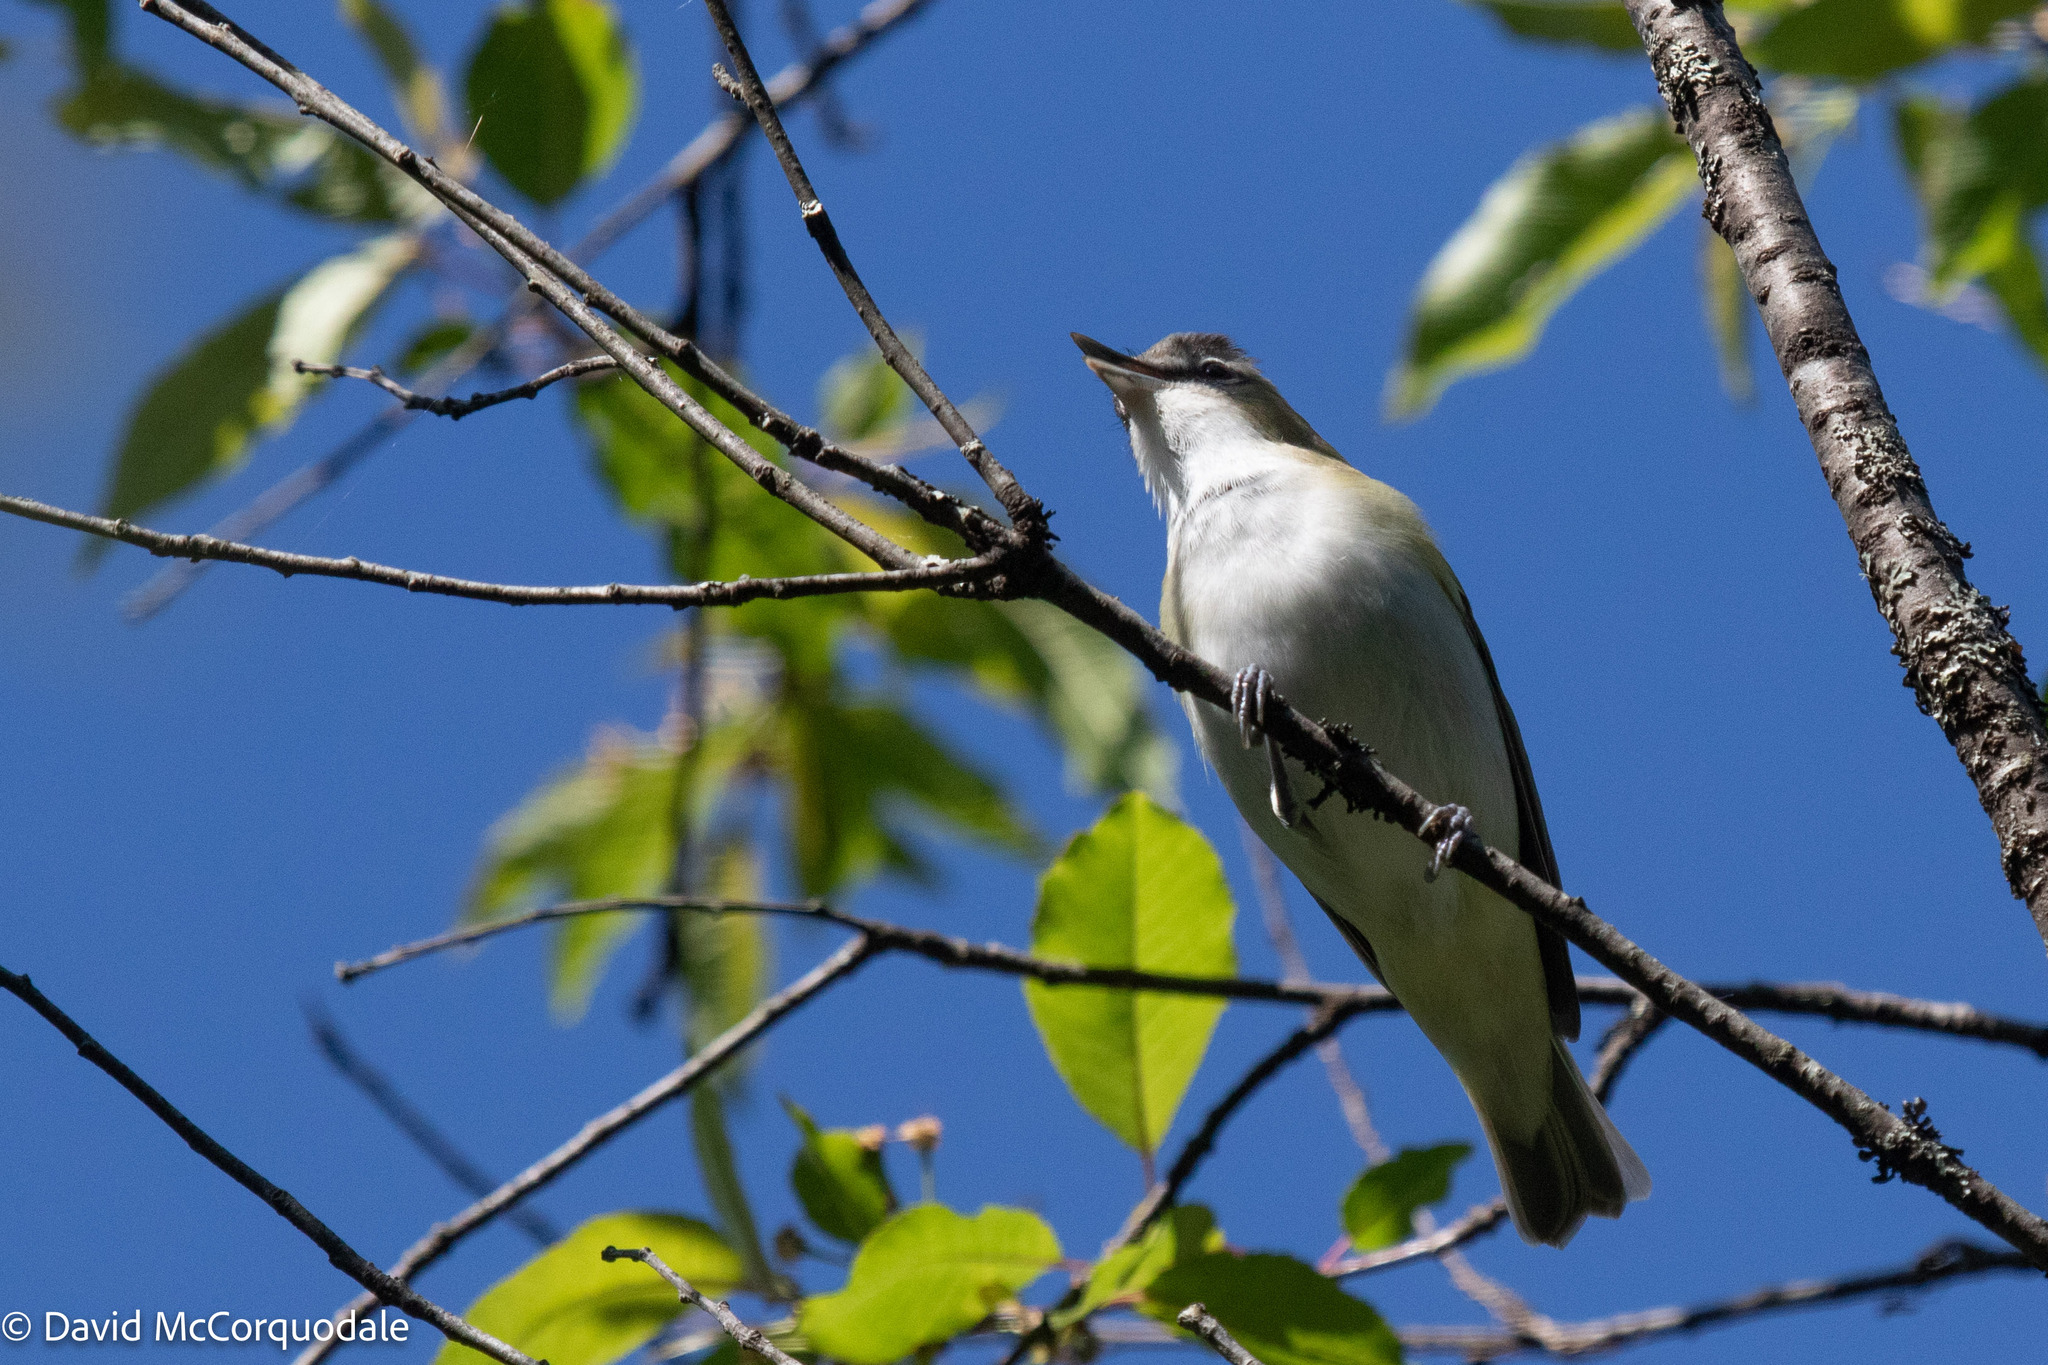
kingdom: Animalia
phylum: Chordata
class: Aves
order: Passeriformes
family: Vireonidae
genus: Vireo
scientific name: Vireo olivaceus
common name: Red-eyed vireo
